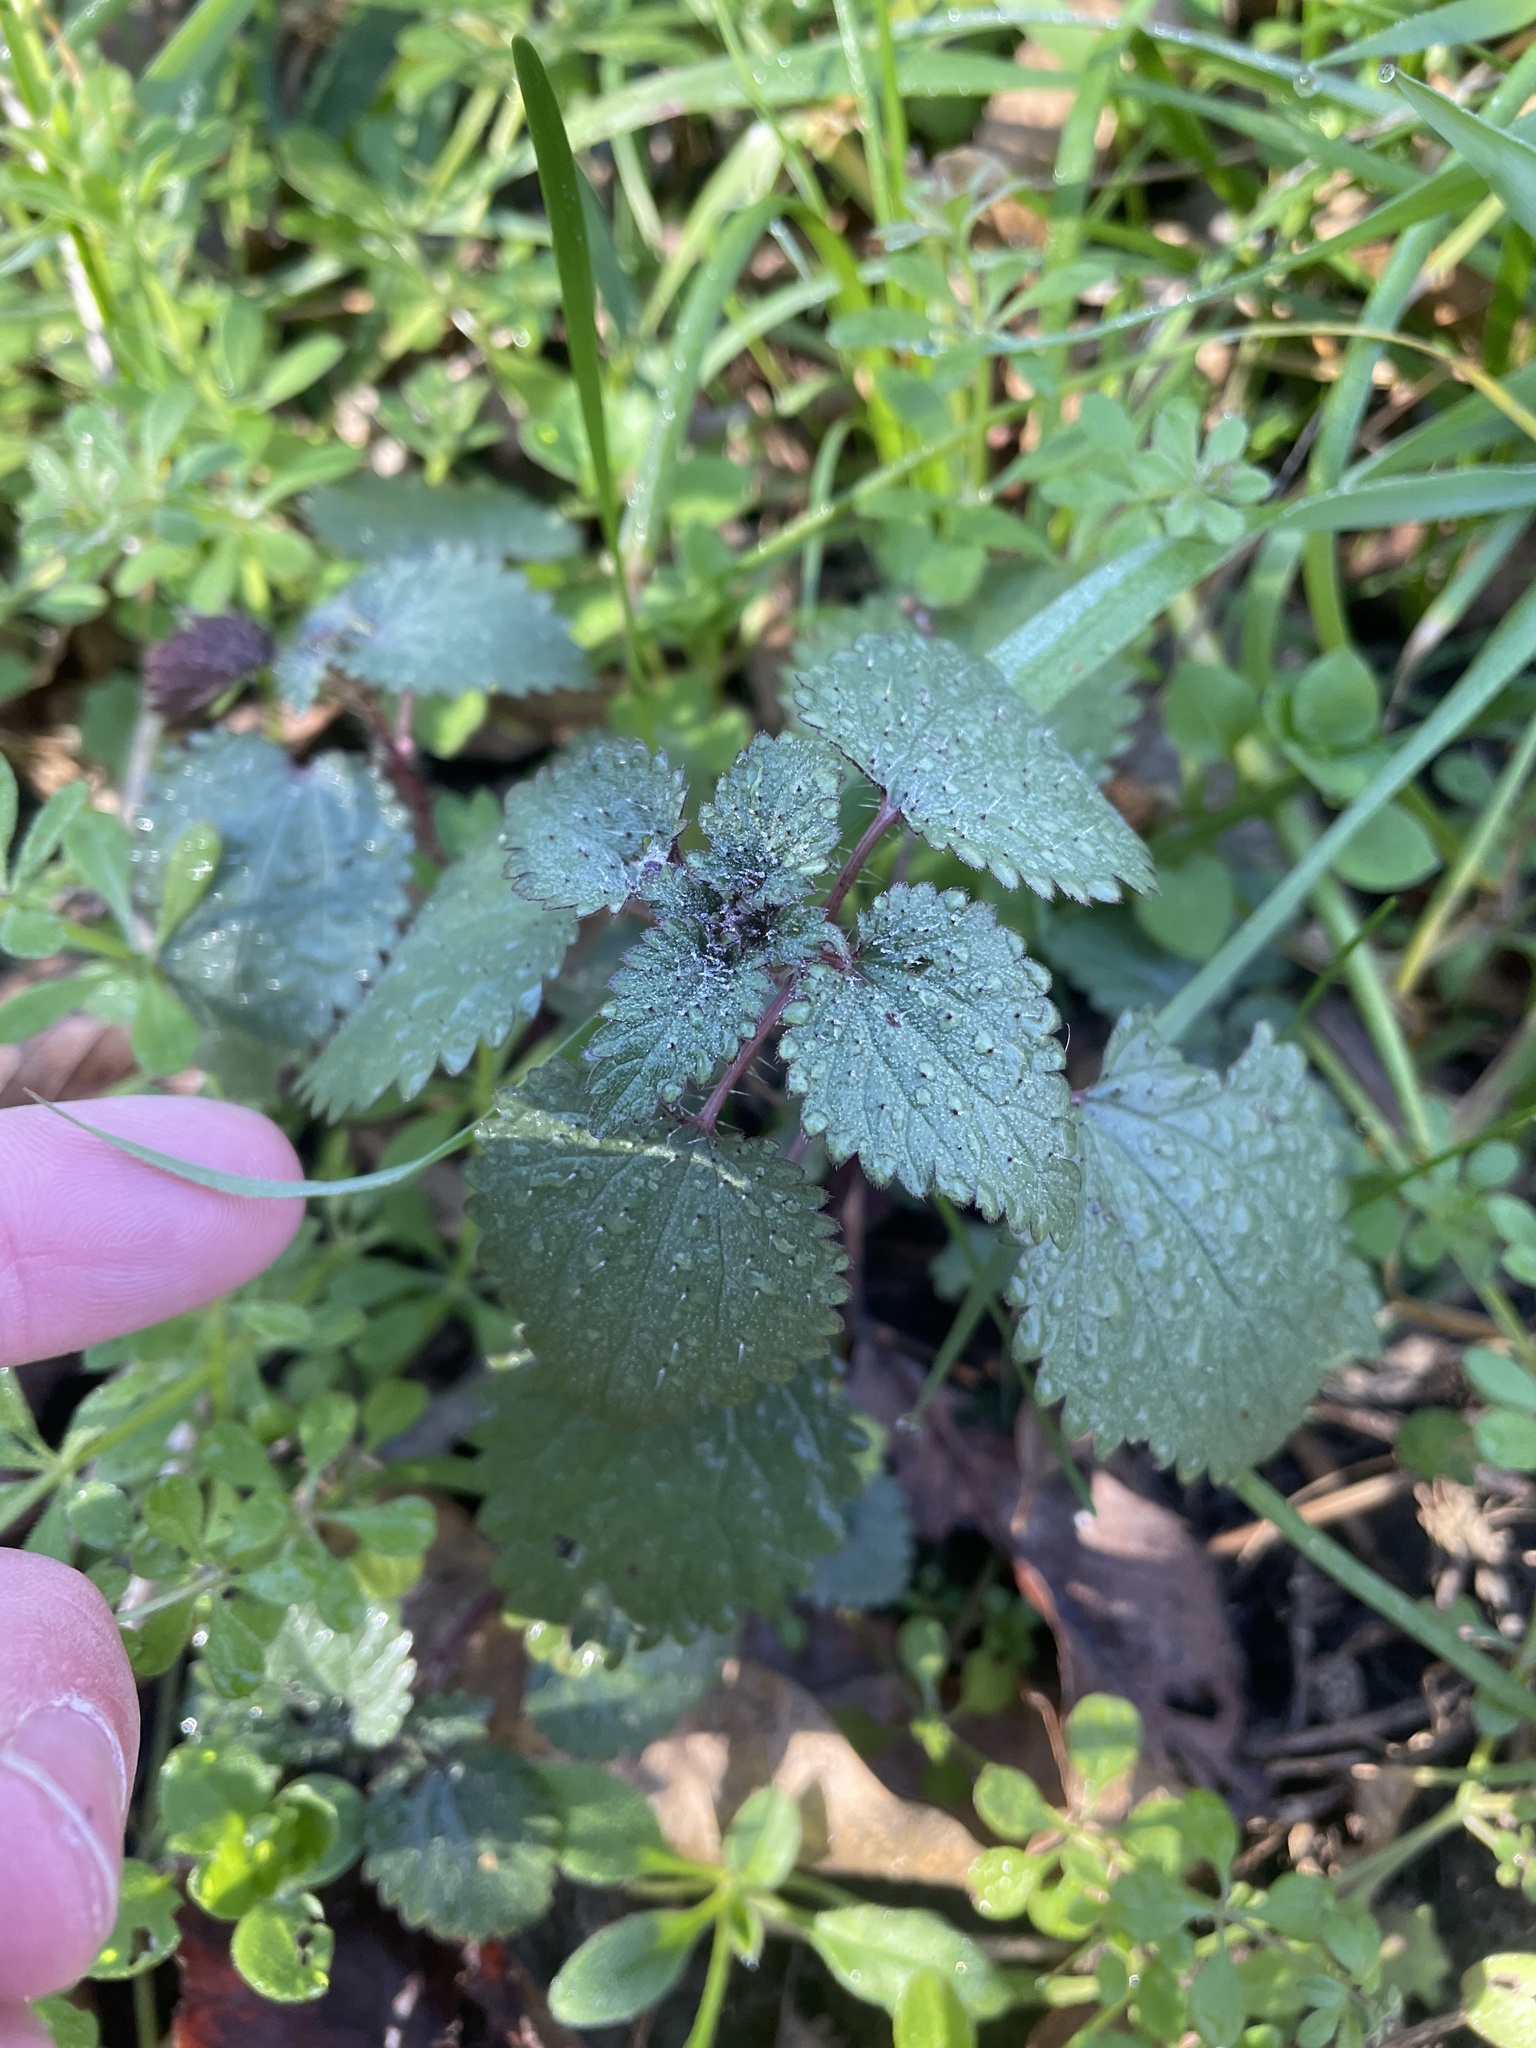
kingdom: Plantae
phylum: Tracheophyta
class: Magnoliopsida
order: Rosales
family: Urticaceae
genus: Urtica
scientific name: Urtica chamaedryoides
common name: Heart-leaf nettle
